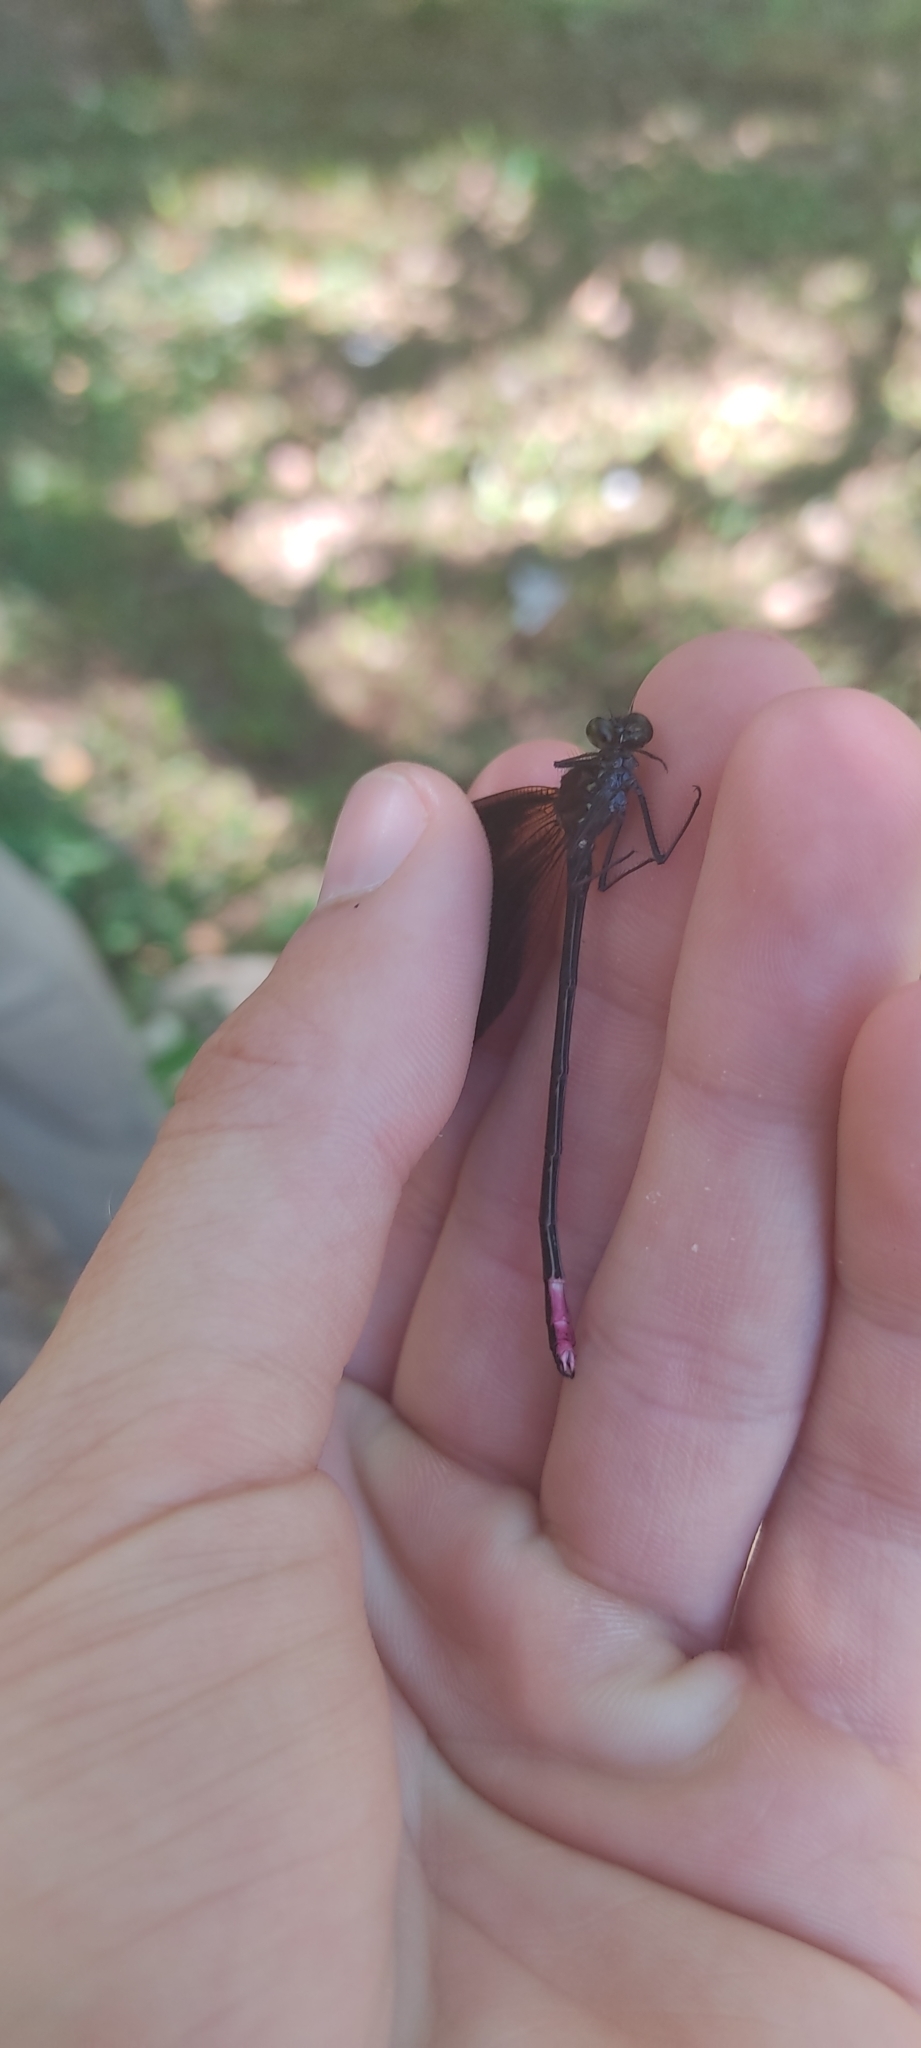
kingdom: Animalia
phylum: Arthropoda
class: Insecta
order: Odonata
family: Calopterygidae
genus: Calopteryx
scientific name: Calopteryx haemorrhoidalis
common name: Copper demoiselle
